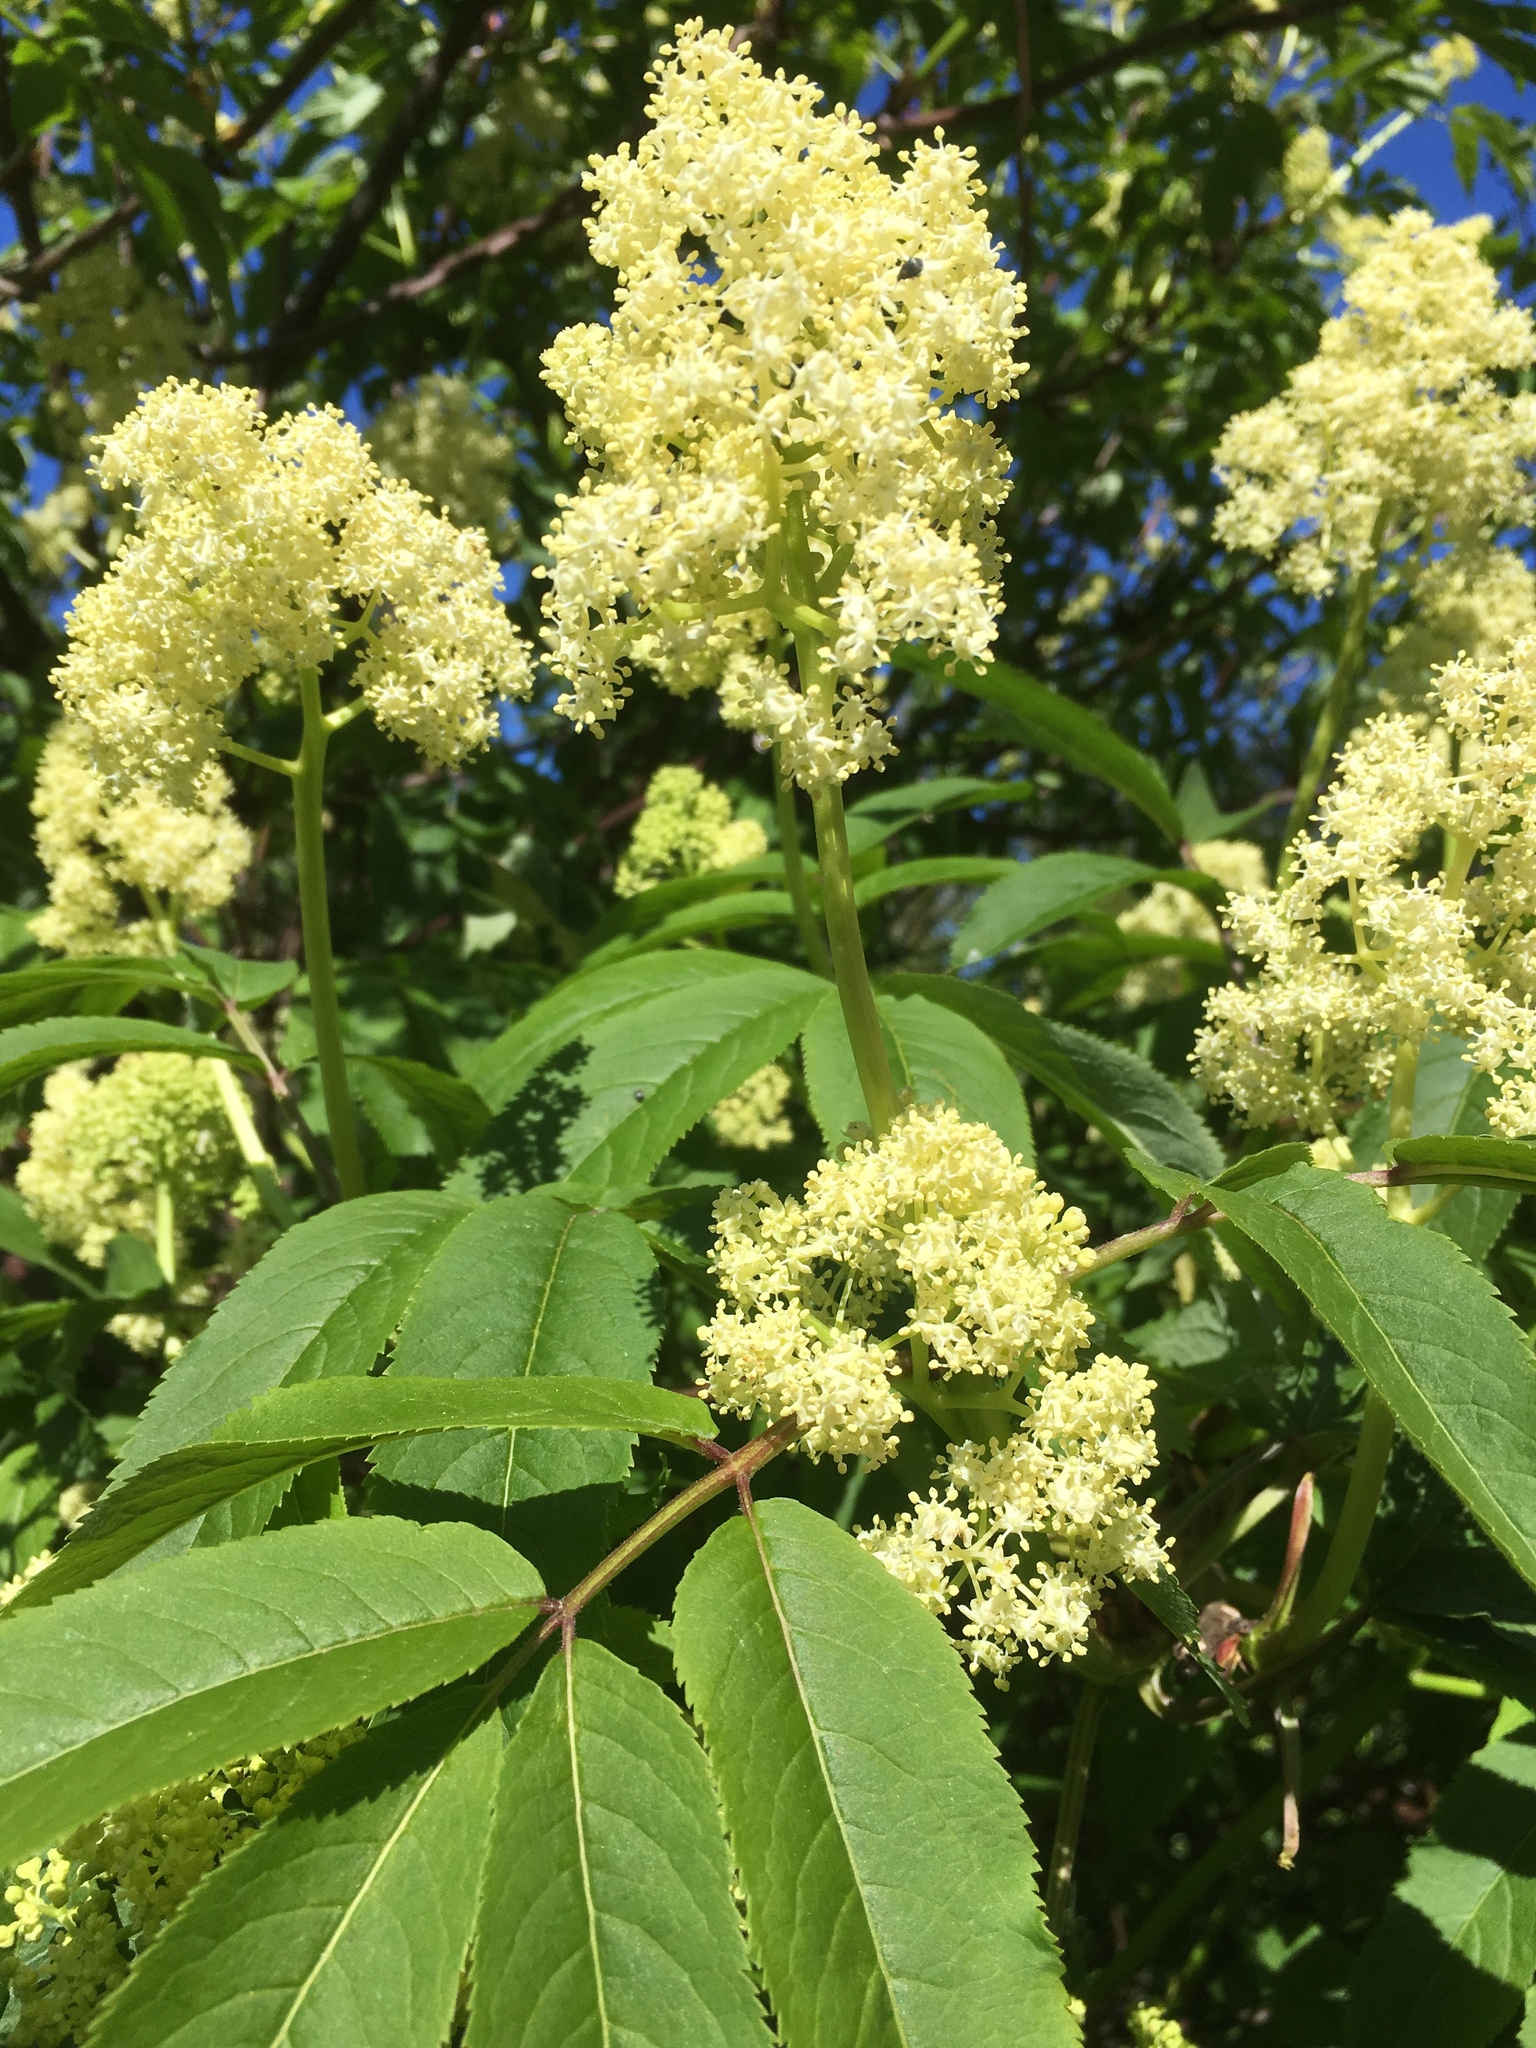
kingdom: Plantae
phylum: Tracheophyta
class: Magnoliopsida
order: Dipsacales
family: Viburnaceae
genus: Sambucus
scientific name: Sambucus racemosa
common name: Red-berried elder
